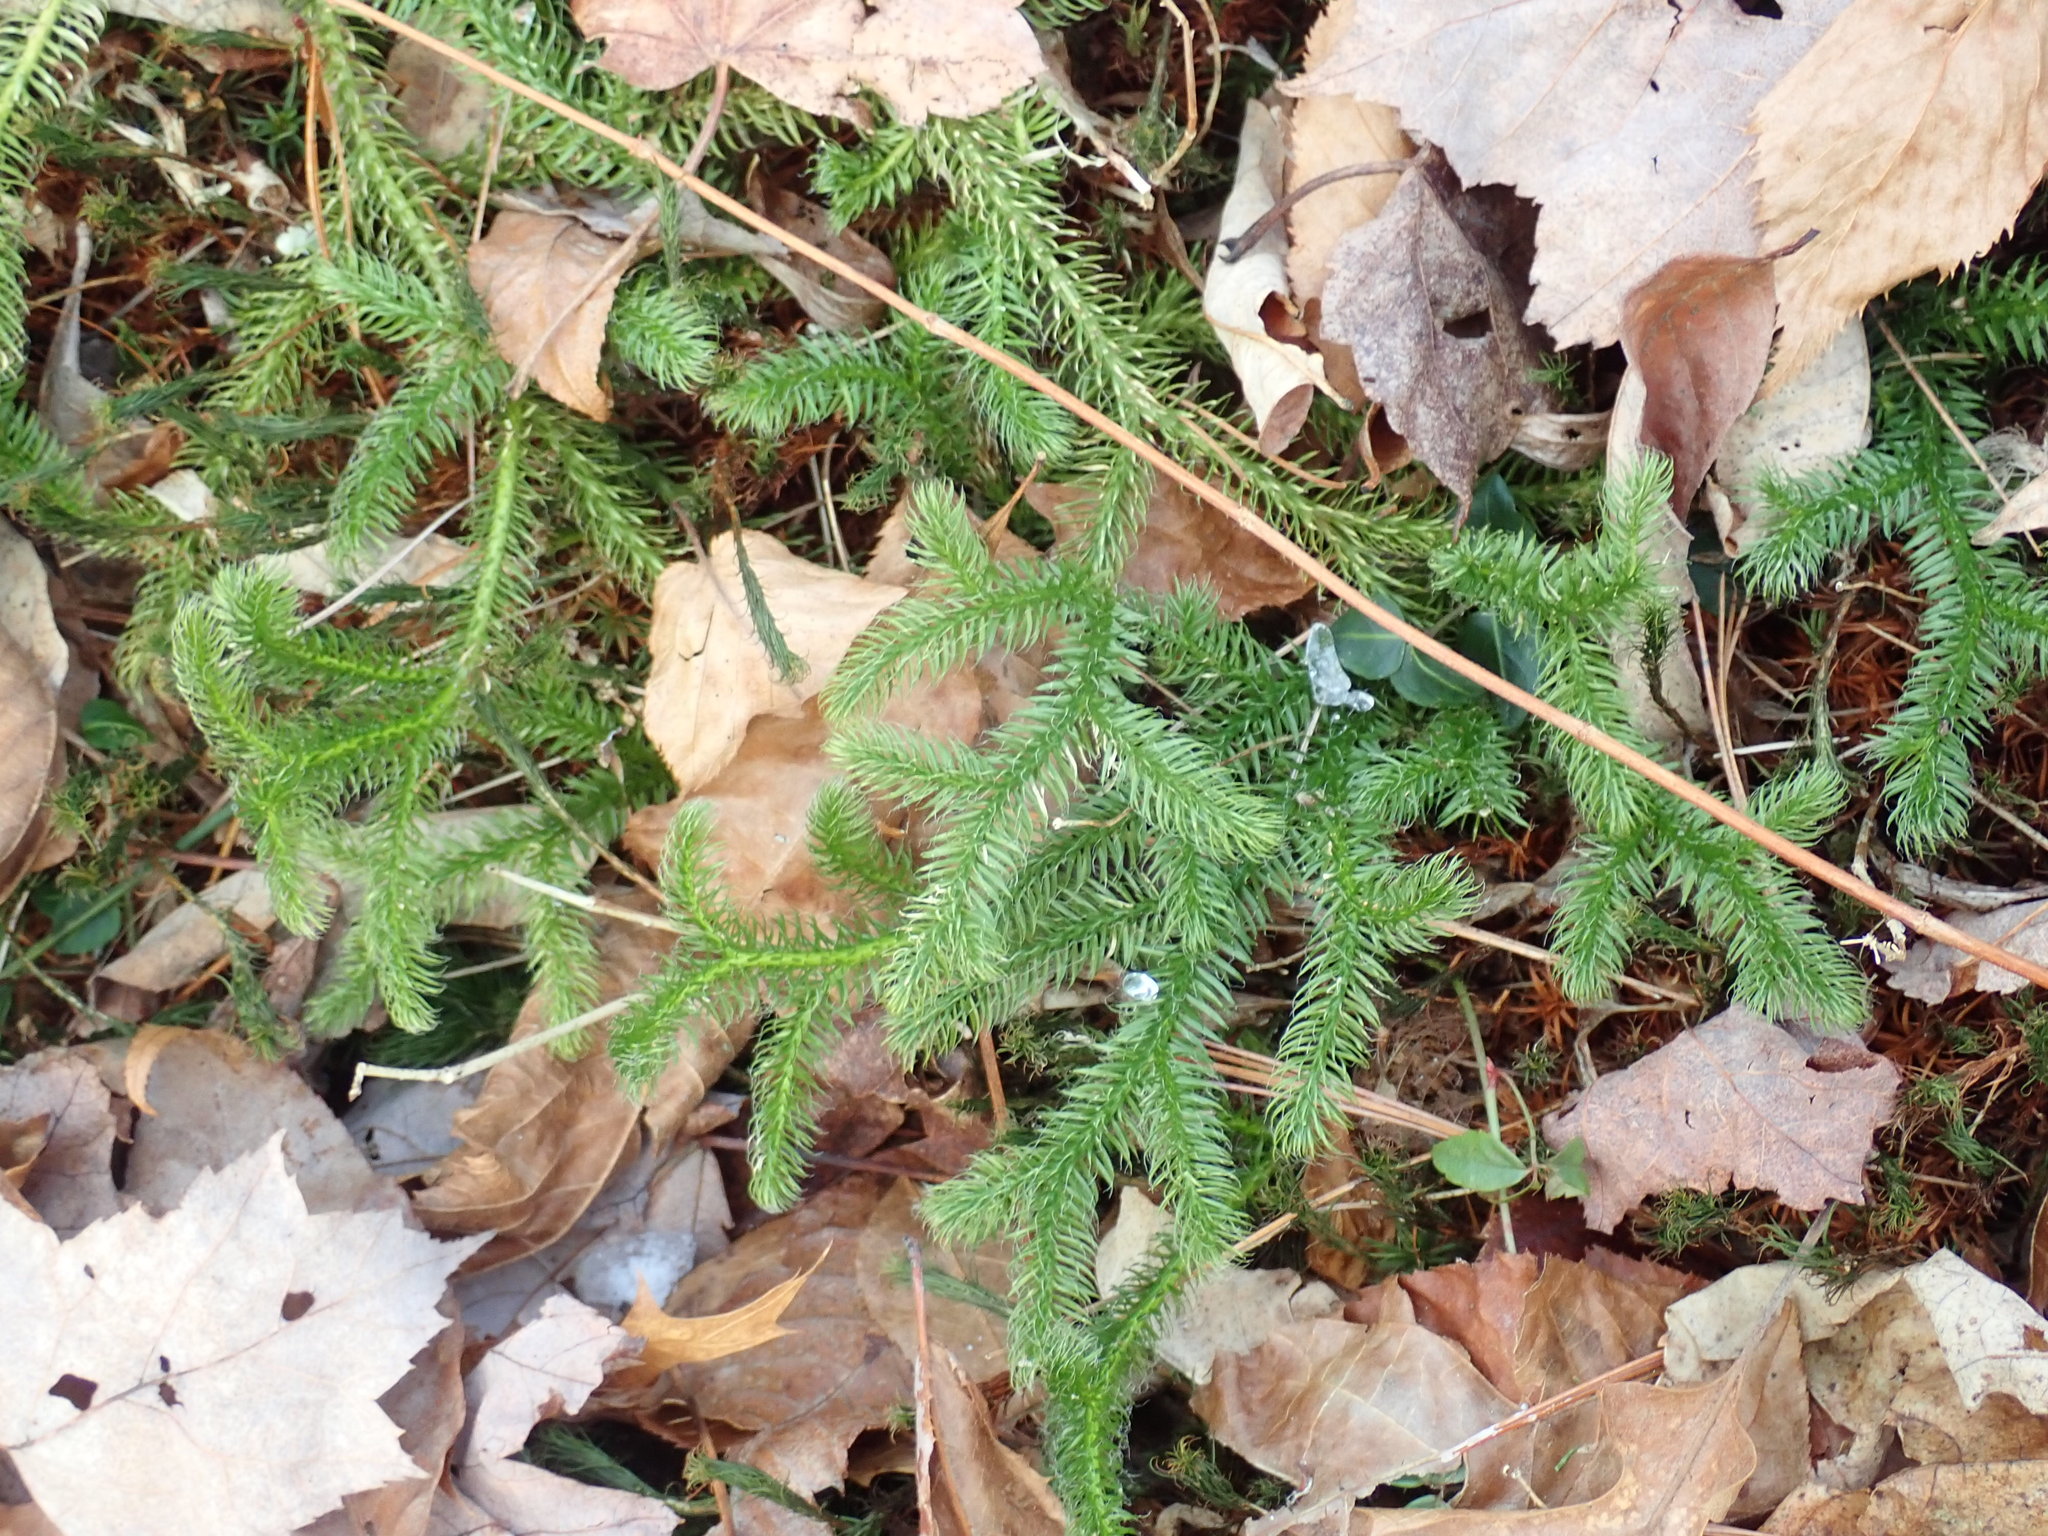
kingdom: Plantae
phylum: Tracheophyta
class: Lycopodiopsida
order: Lycopodiales
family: Lycopodiaceae
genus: Lycopodium
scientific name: Lycopodium clavatum
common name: Stag's-horn clubmoss
